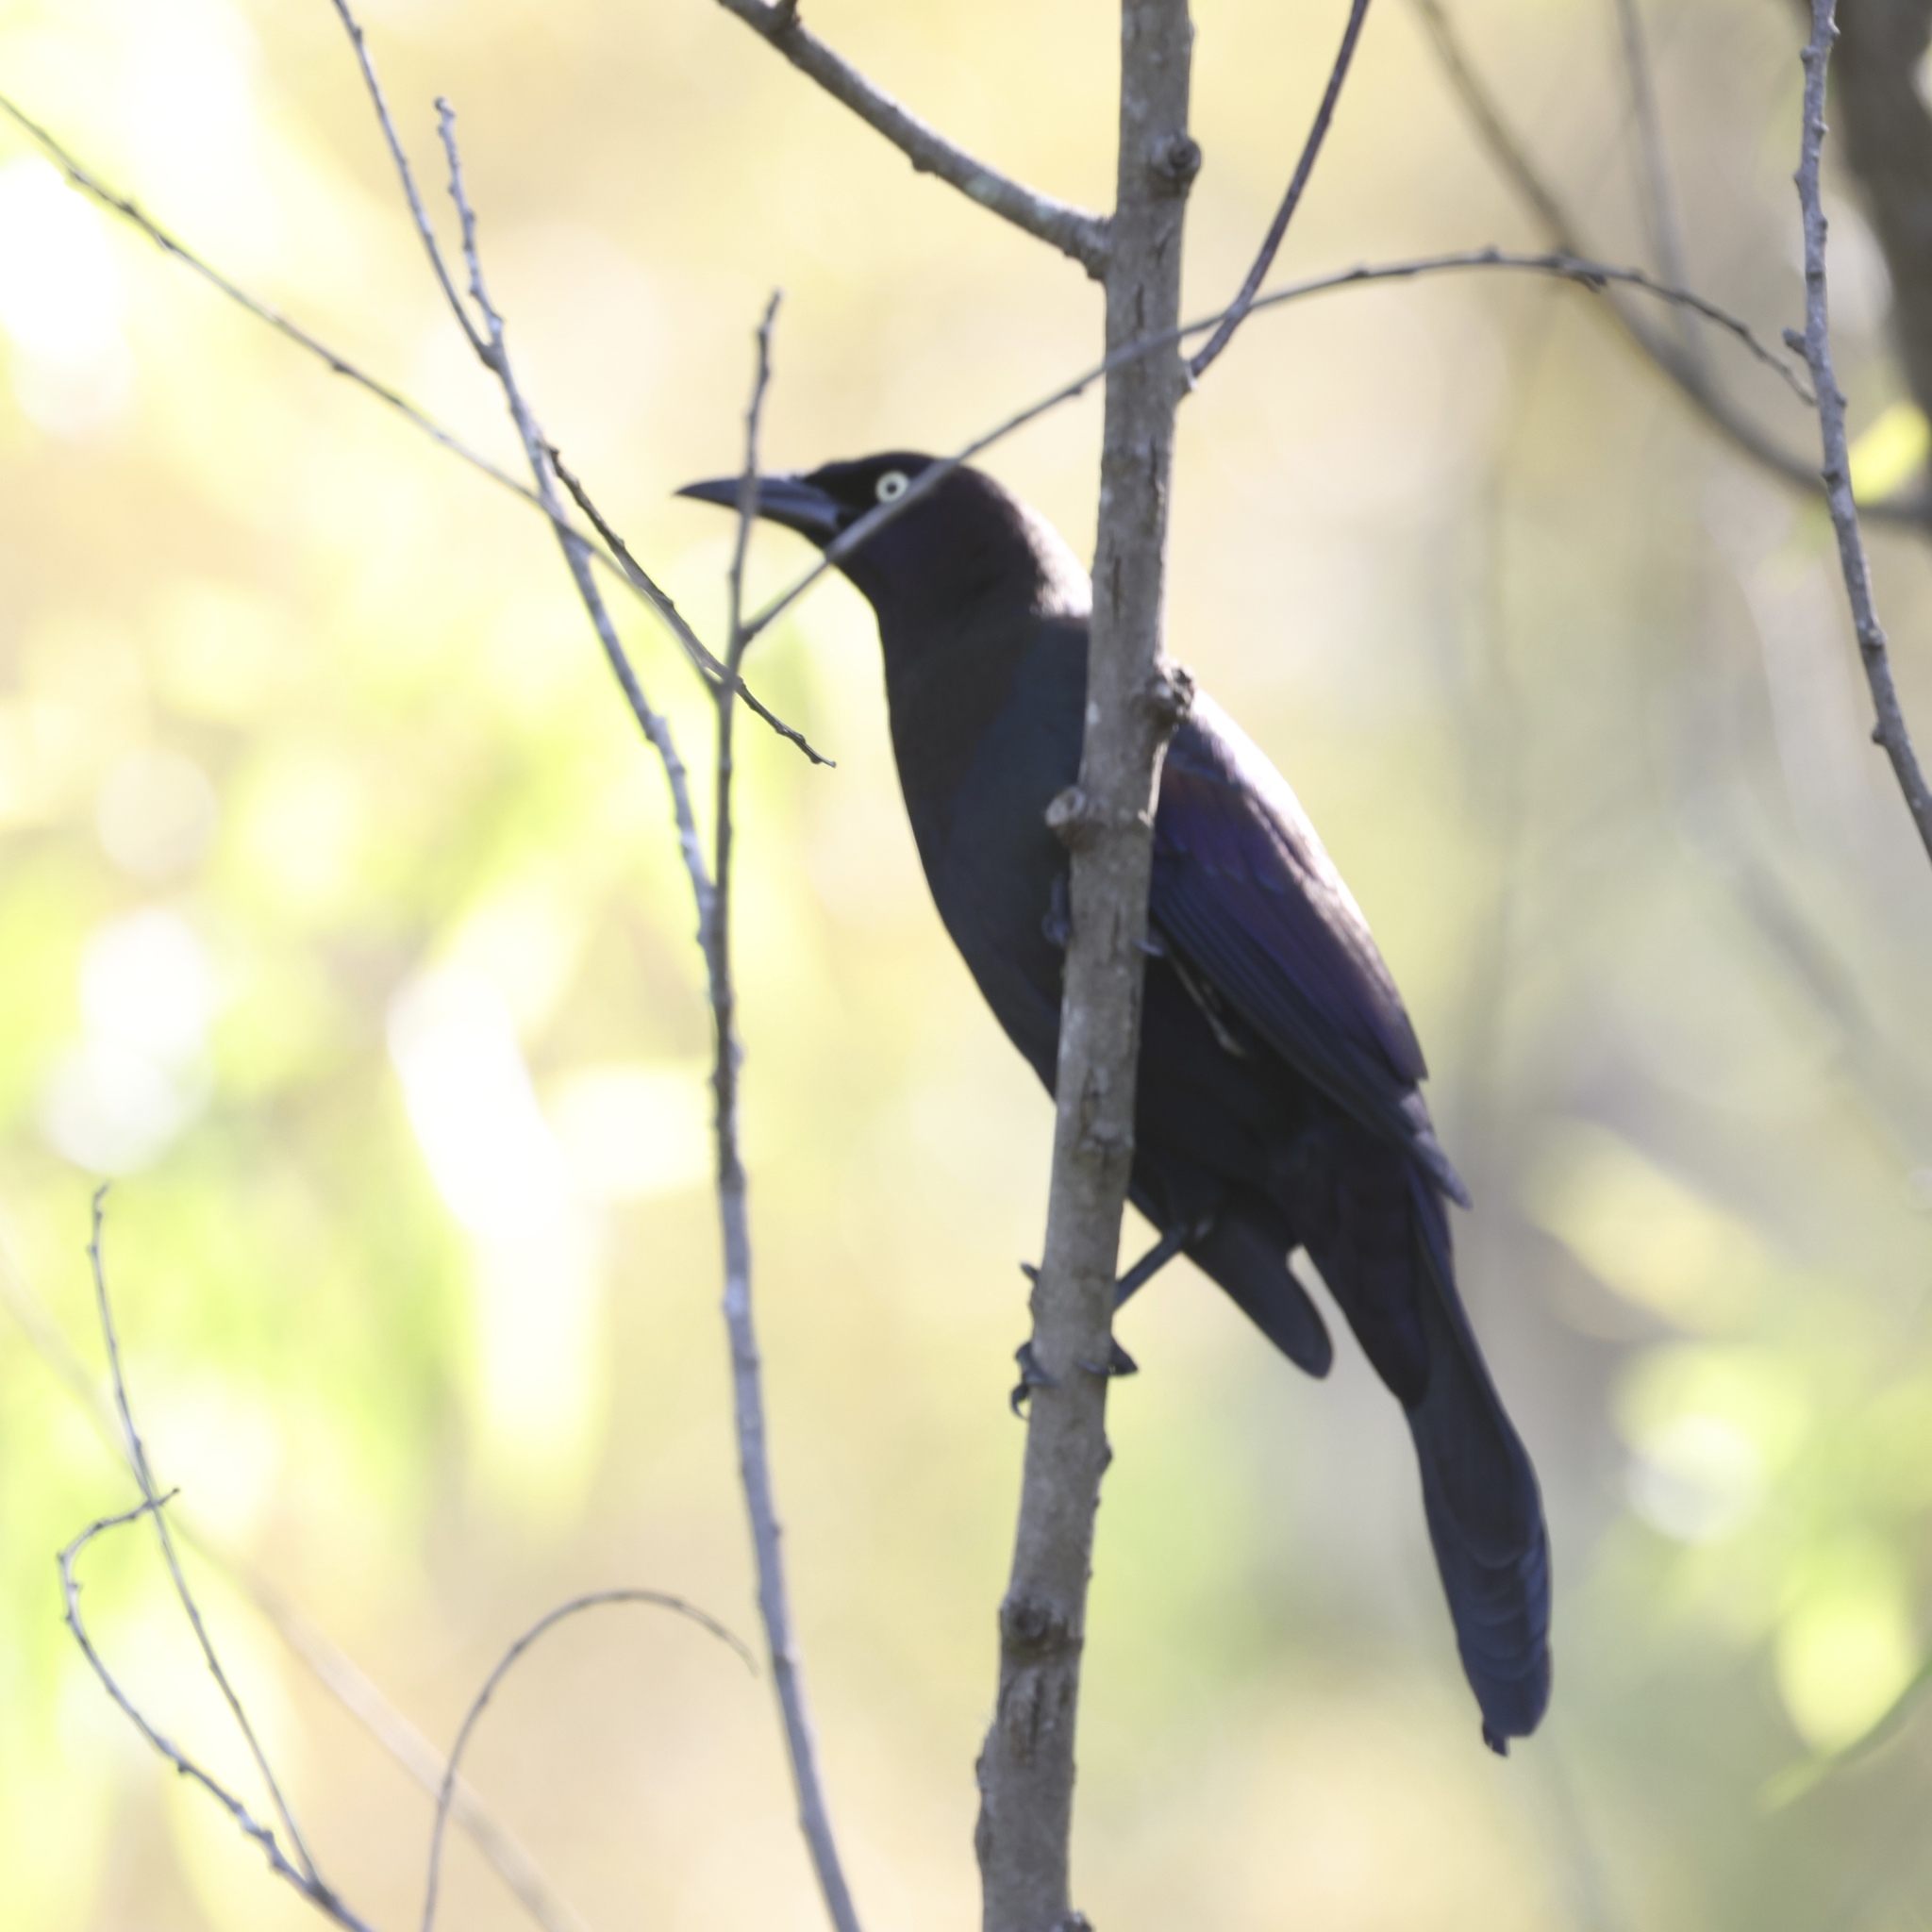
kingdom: Animalia
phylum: Chordata
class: Aves
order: Passeriformes
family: Icteridae
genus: Quiscalus
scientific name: Quiscalus quiscula
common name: Common grackle
